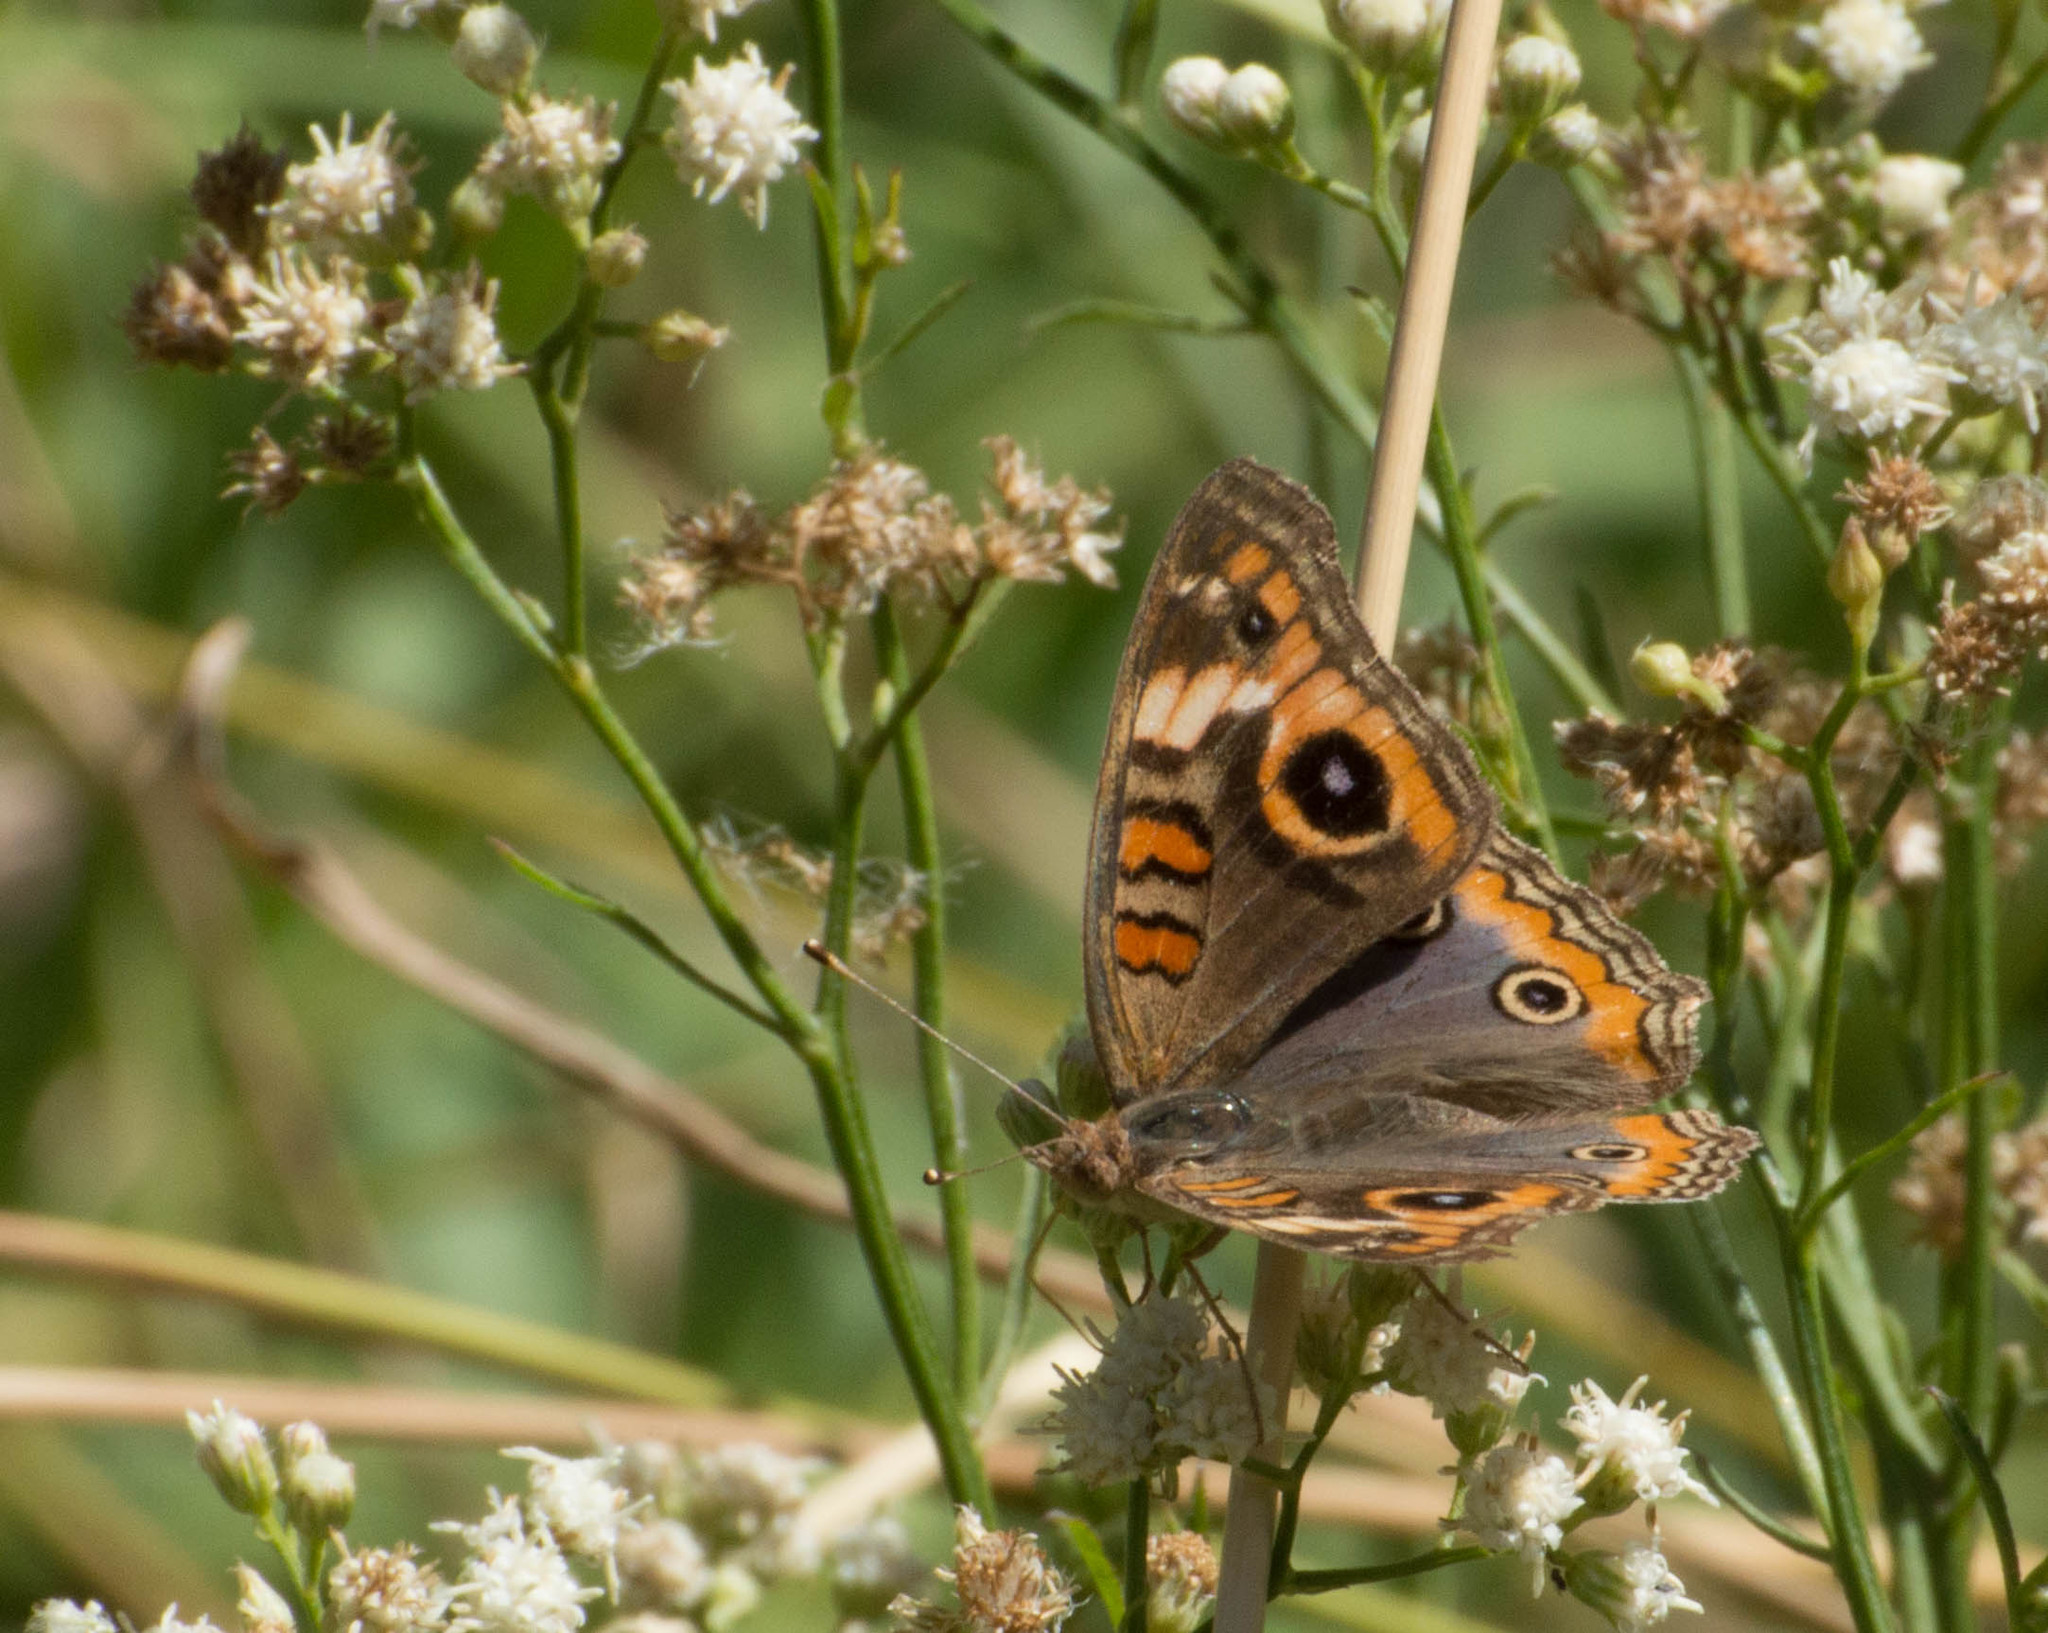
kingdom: Animalia
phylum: Arthropoda
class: Insecta
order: Lepidoptera
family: Nymphalidae
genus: Junonia
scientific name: Junonia lavinia
